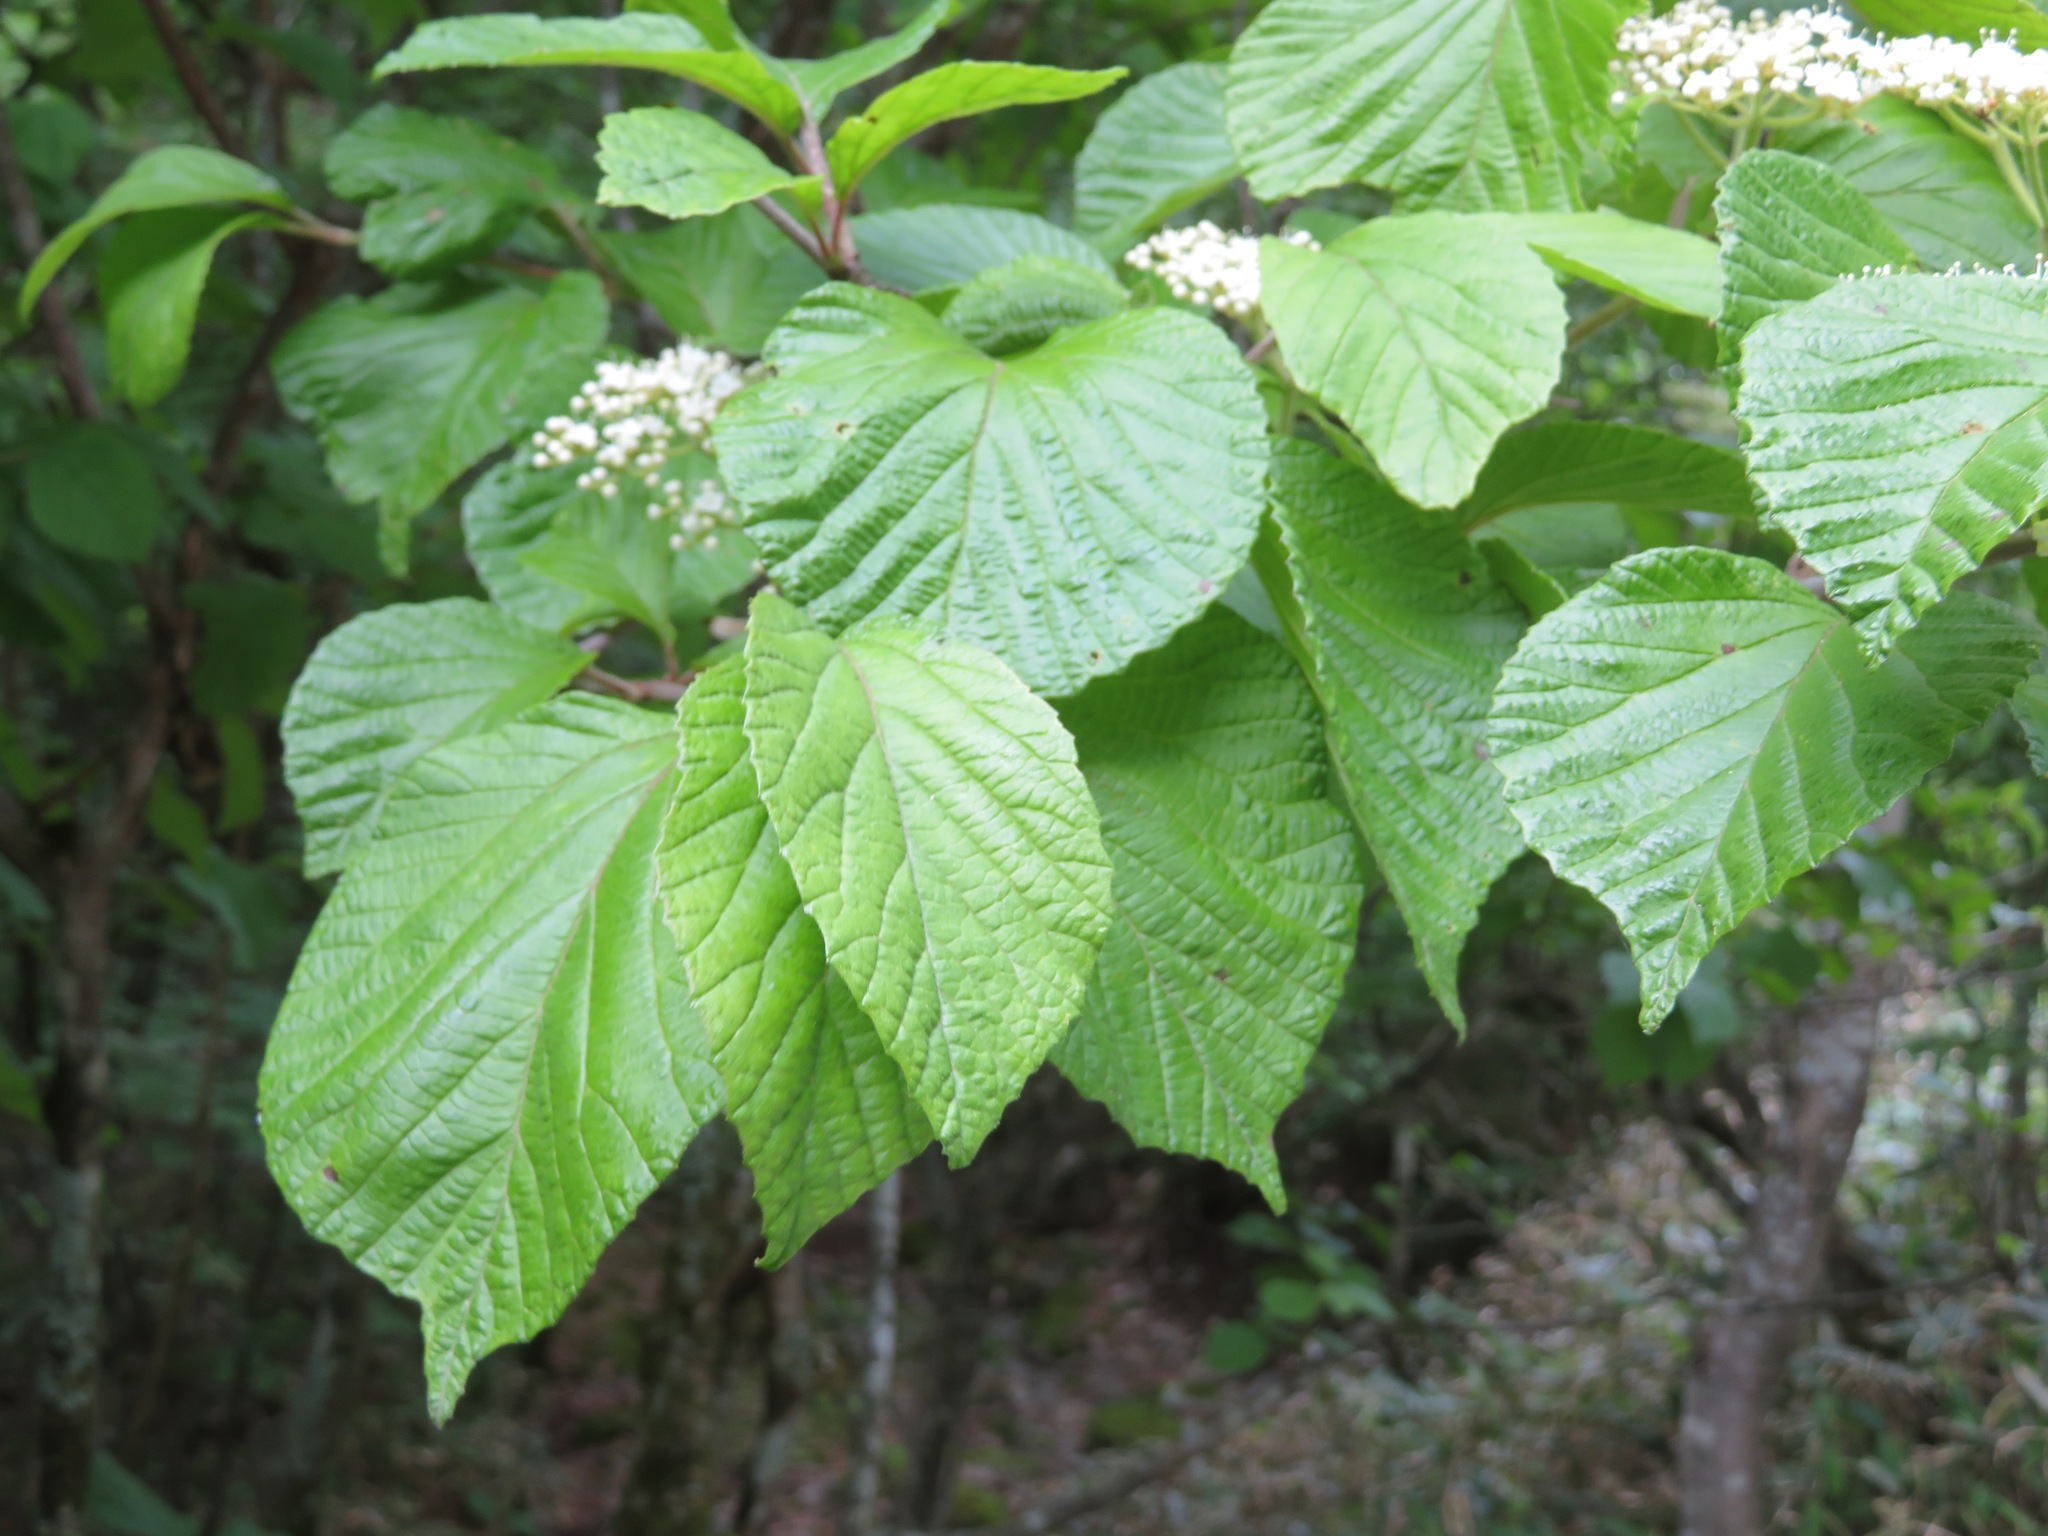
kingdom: Plantae
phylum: Tracheophyta
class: Magnoliopsida
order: Dipsacales
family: Viburnaceae
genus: Viburnum
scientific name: Viburnum dilatatum
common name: Linden arrowwood
